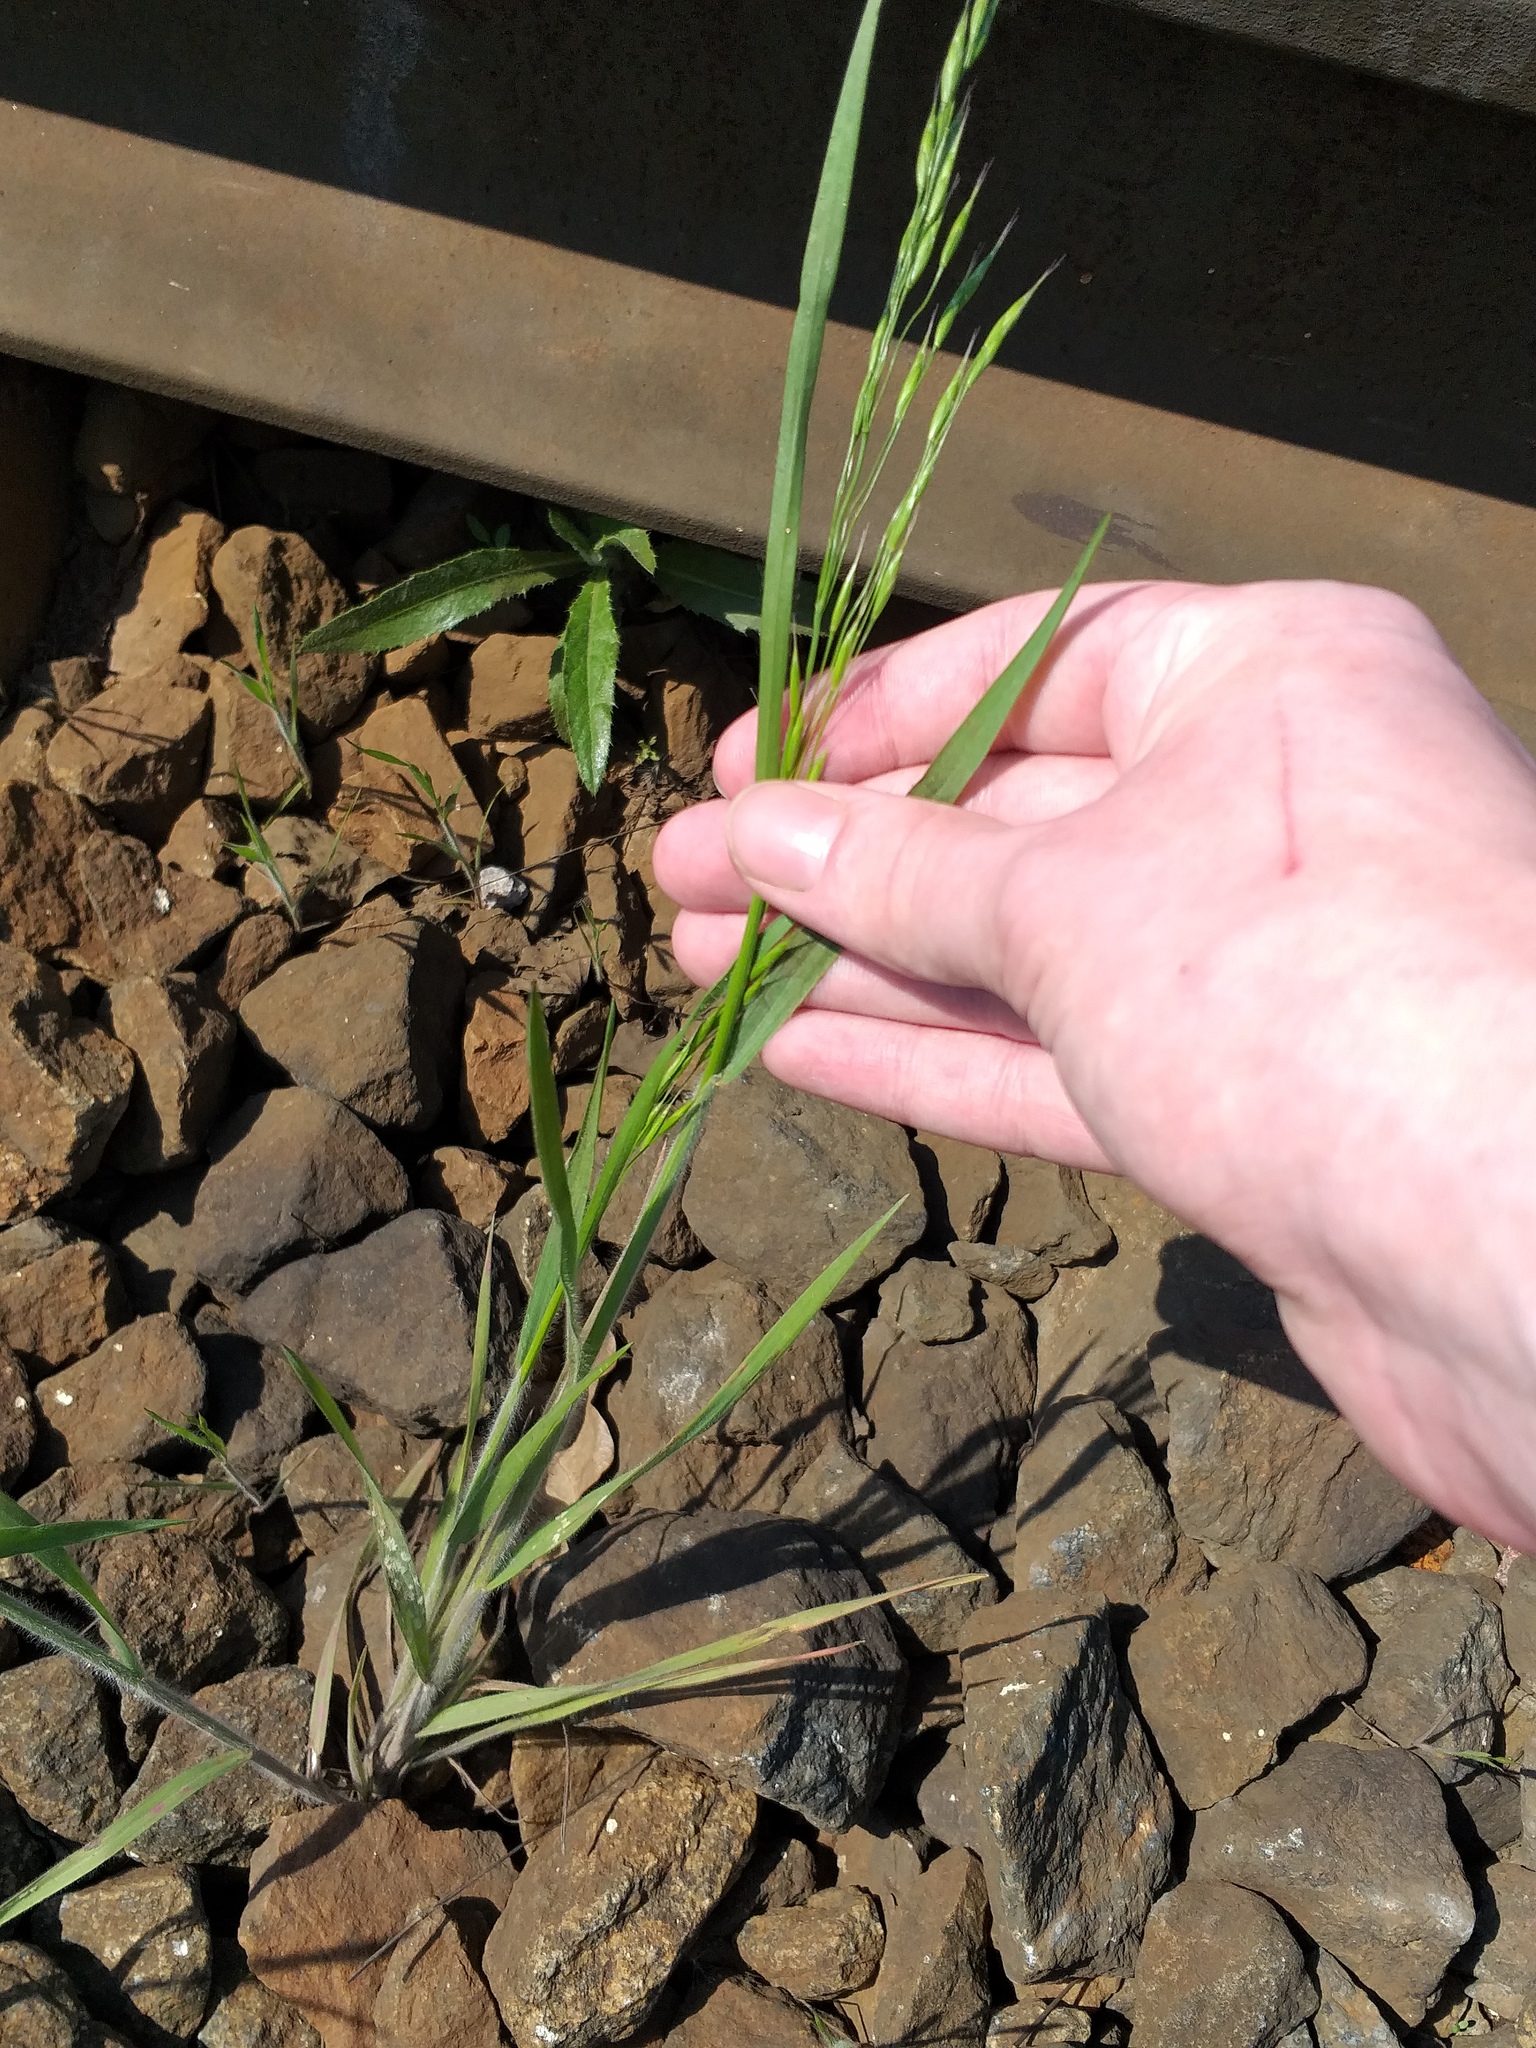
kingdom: Plantae
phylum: Tracheophyta
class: Liliopsida
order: Poales
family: Poaceae
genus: Bromus
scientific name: Bromus squarrosus
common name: Corn brome
